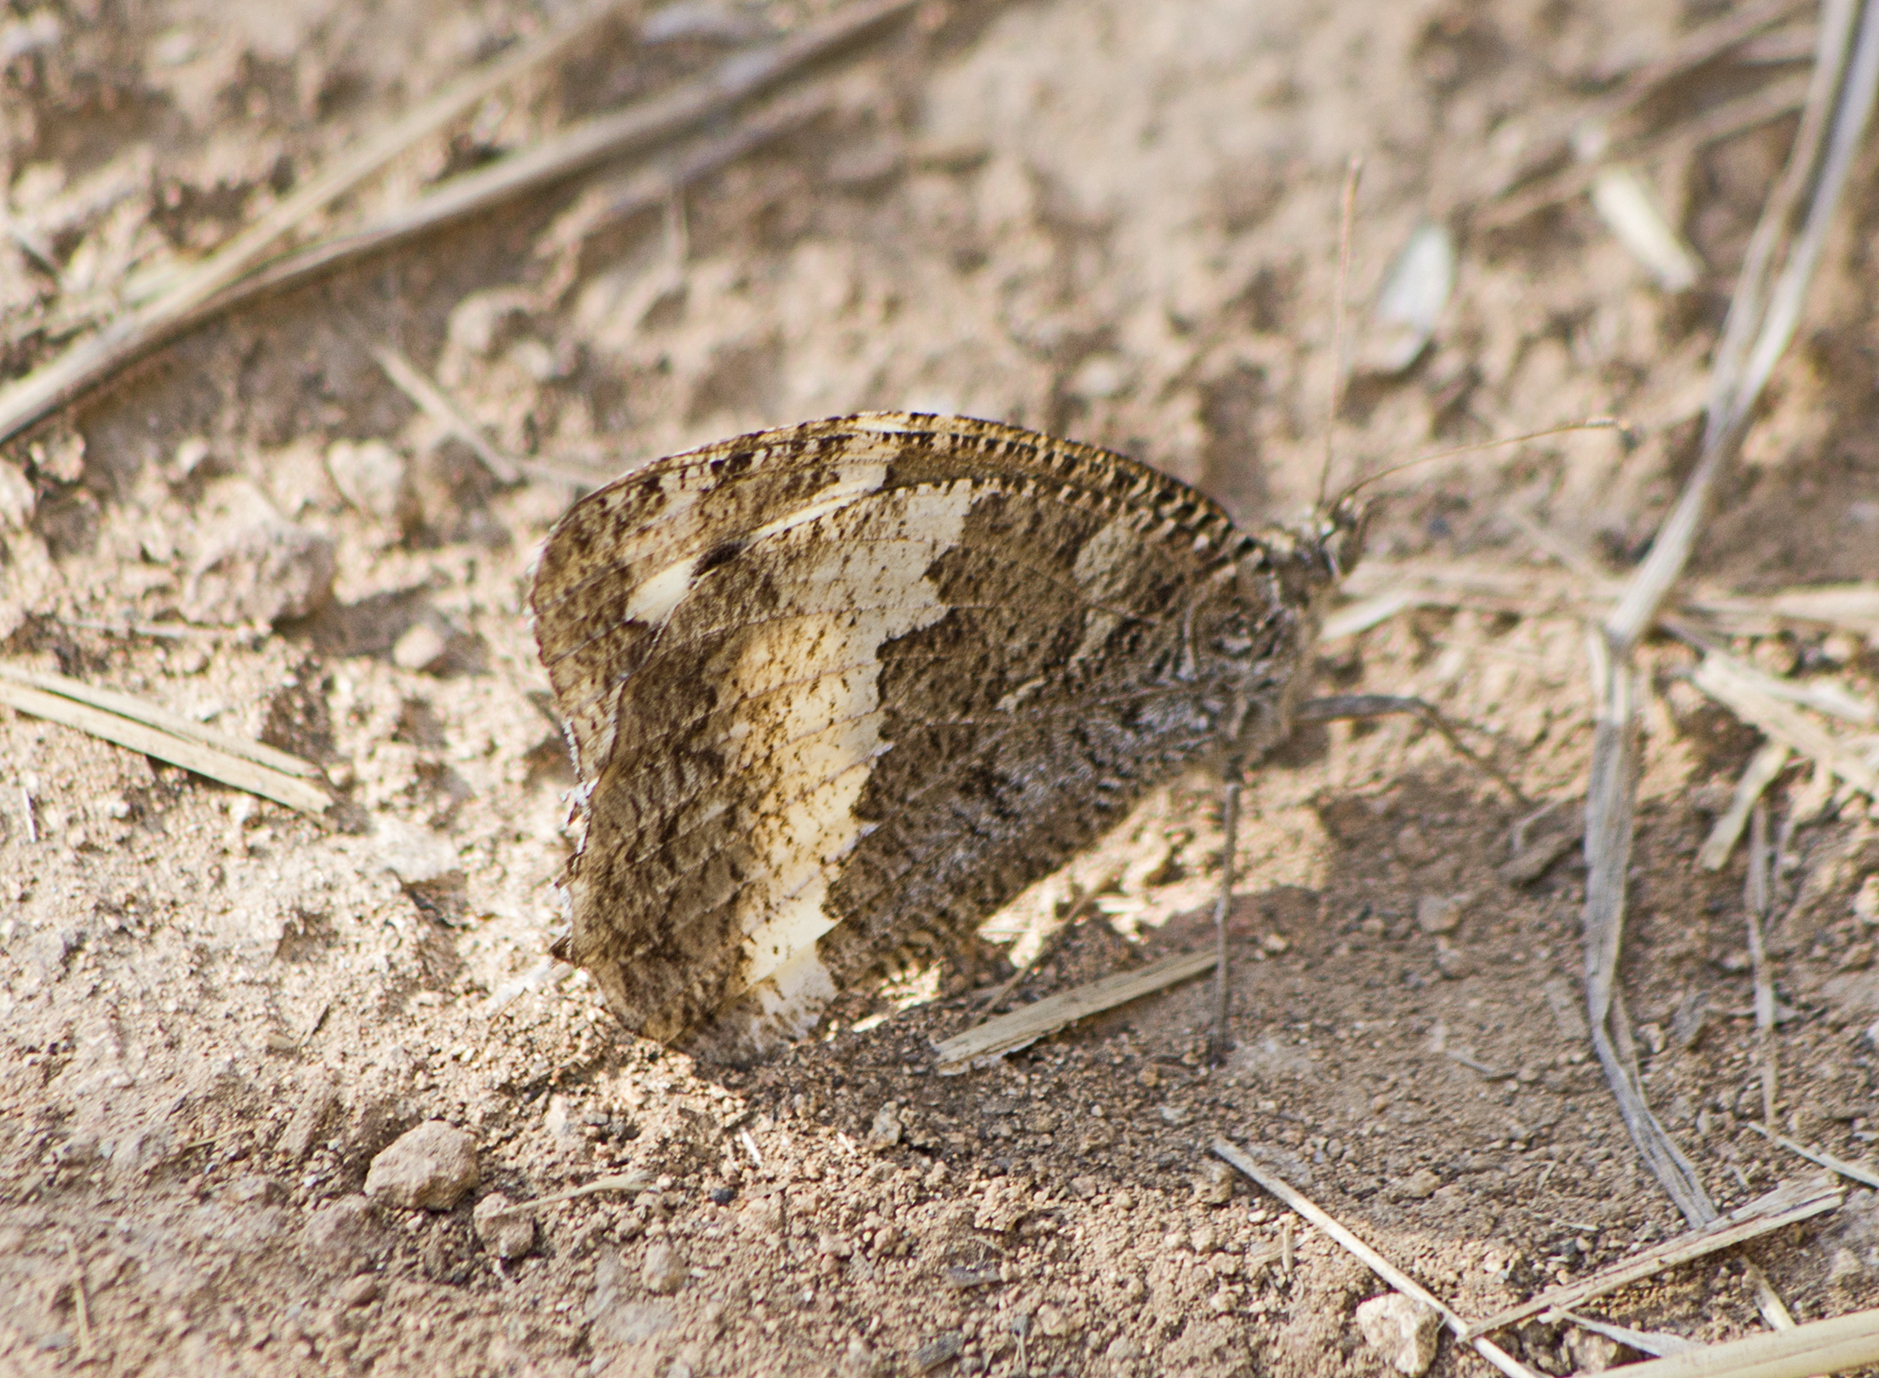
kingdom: Animalia
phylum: Arthropoda
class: Insecta
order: Lepidoptera
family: Lycaenidae
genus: Loweia
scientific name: Loweia tityrus
